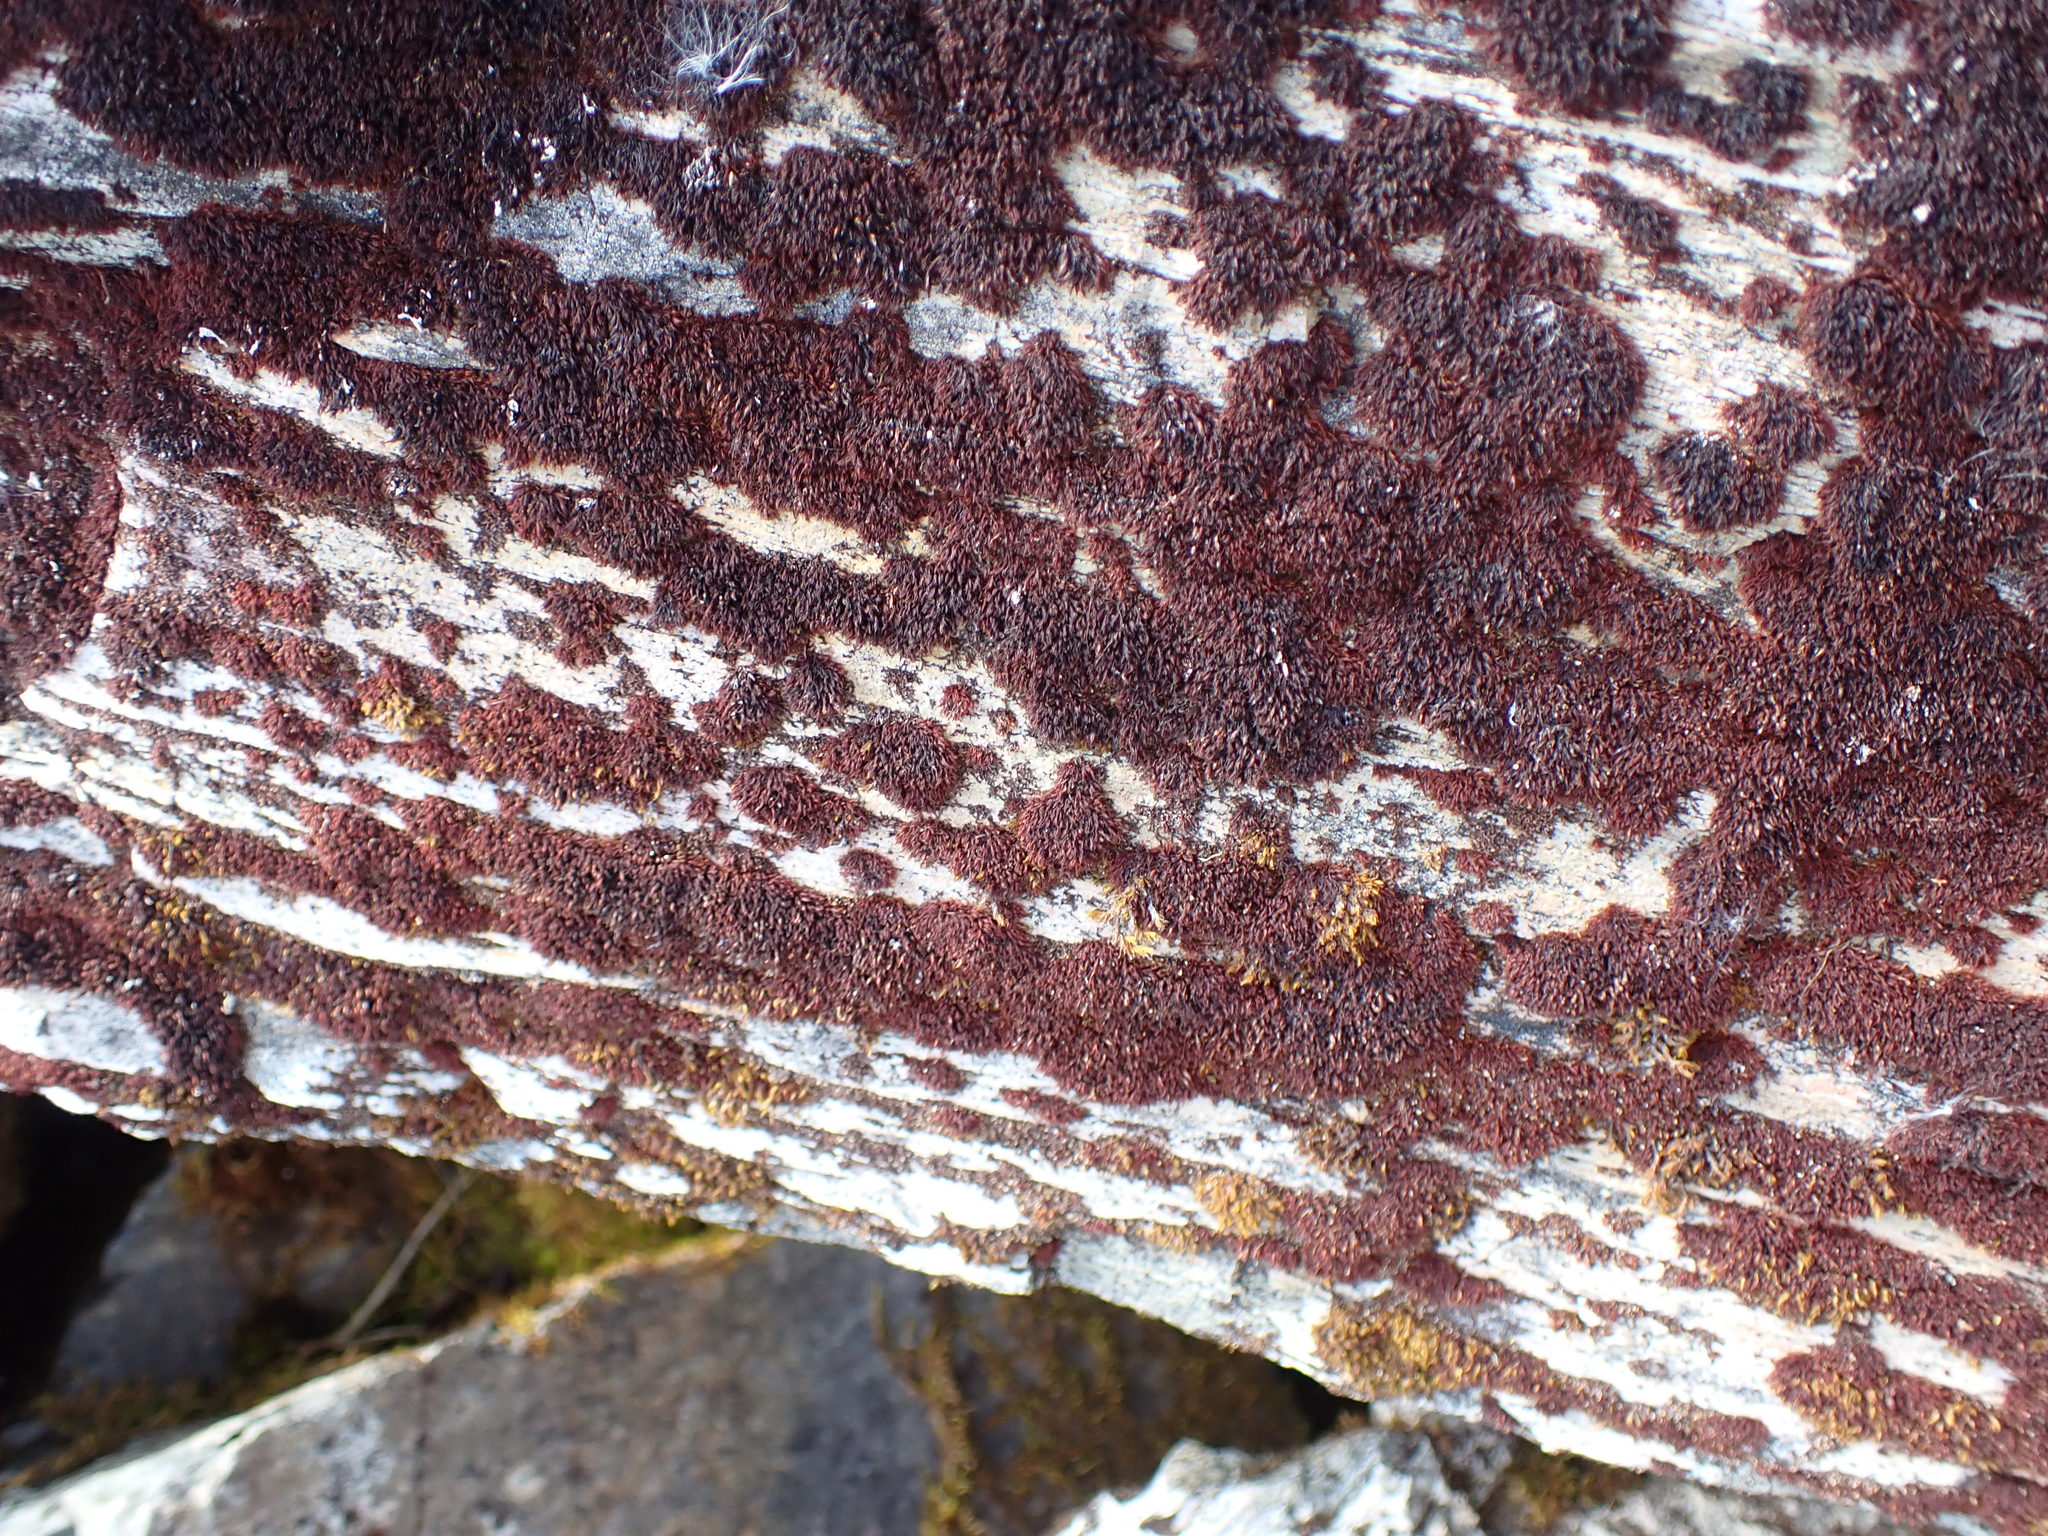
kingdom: Plantae
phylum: Bryophyta
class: Andreaeopsida
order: Andreaeales
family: Andreaeaceae
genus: Andreaea
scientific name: Andreaea nivalis
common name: Snow rock moss
